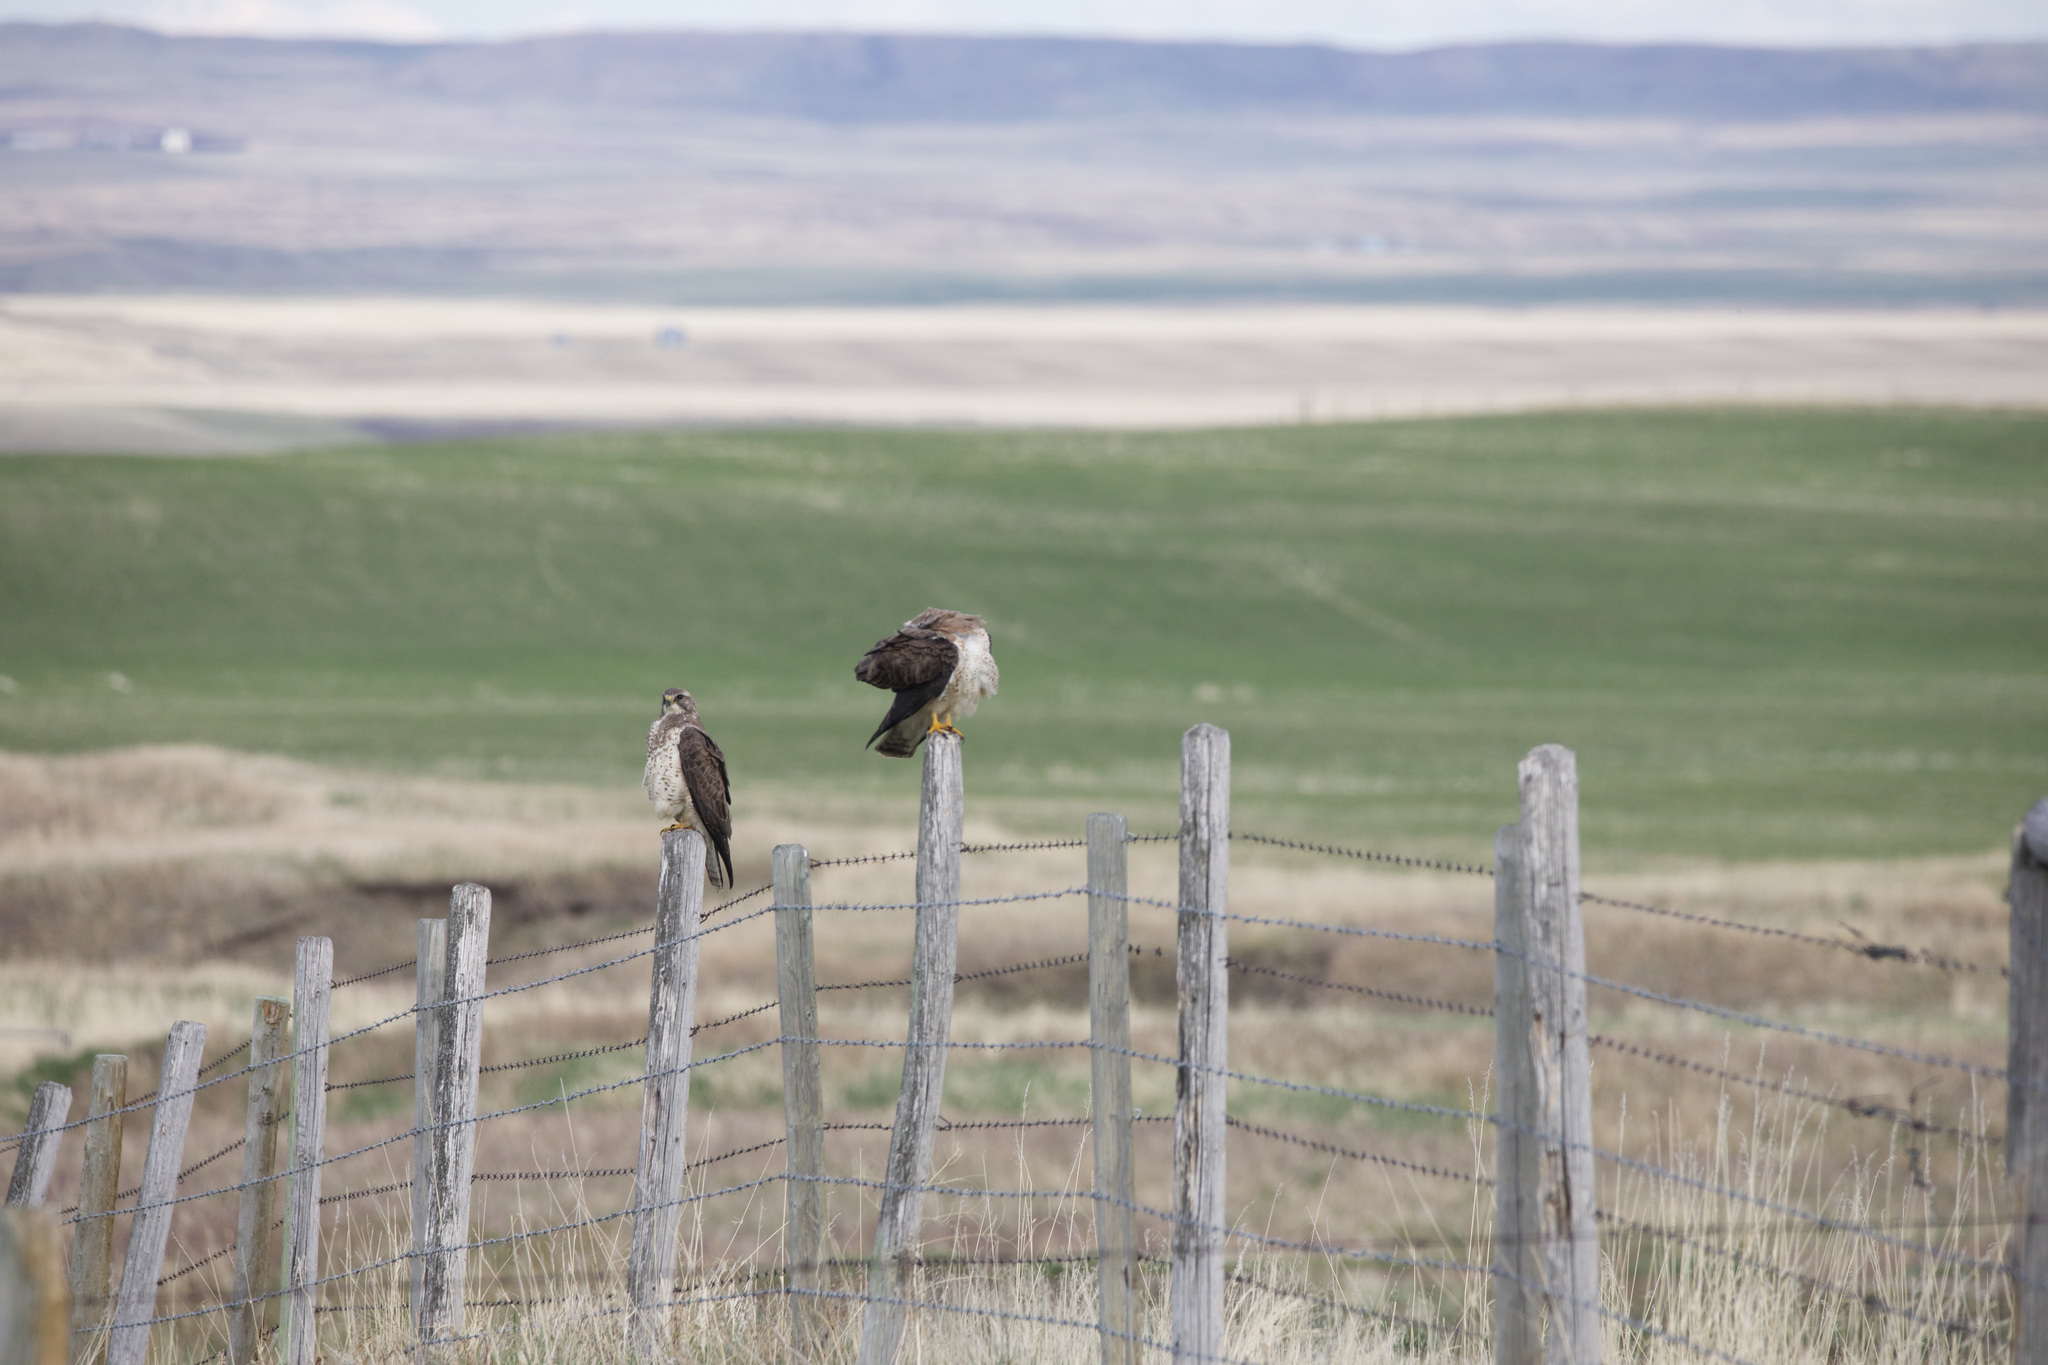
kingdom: Animalia
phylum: Chordata
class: Aves
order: Accipitriformes
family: Accipitridae
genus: Buteo
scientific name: Buteo swainsoni
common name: Swainson's hawk
